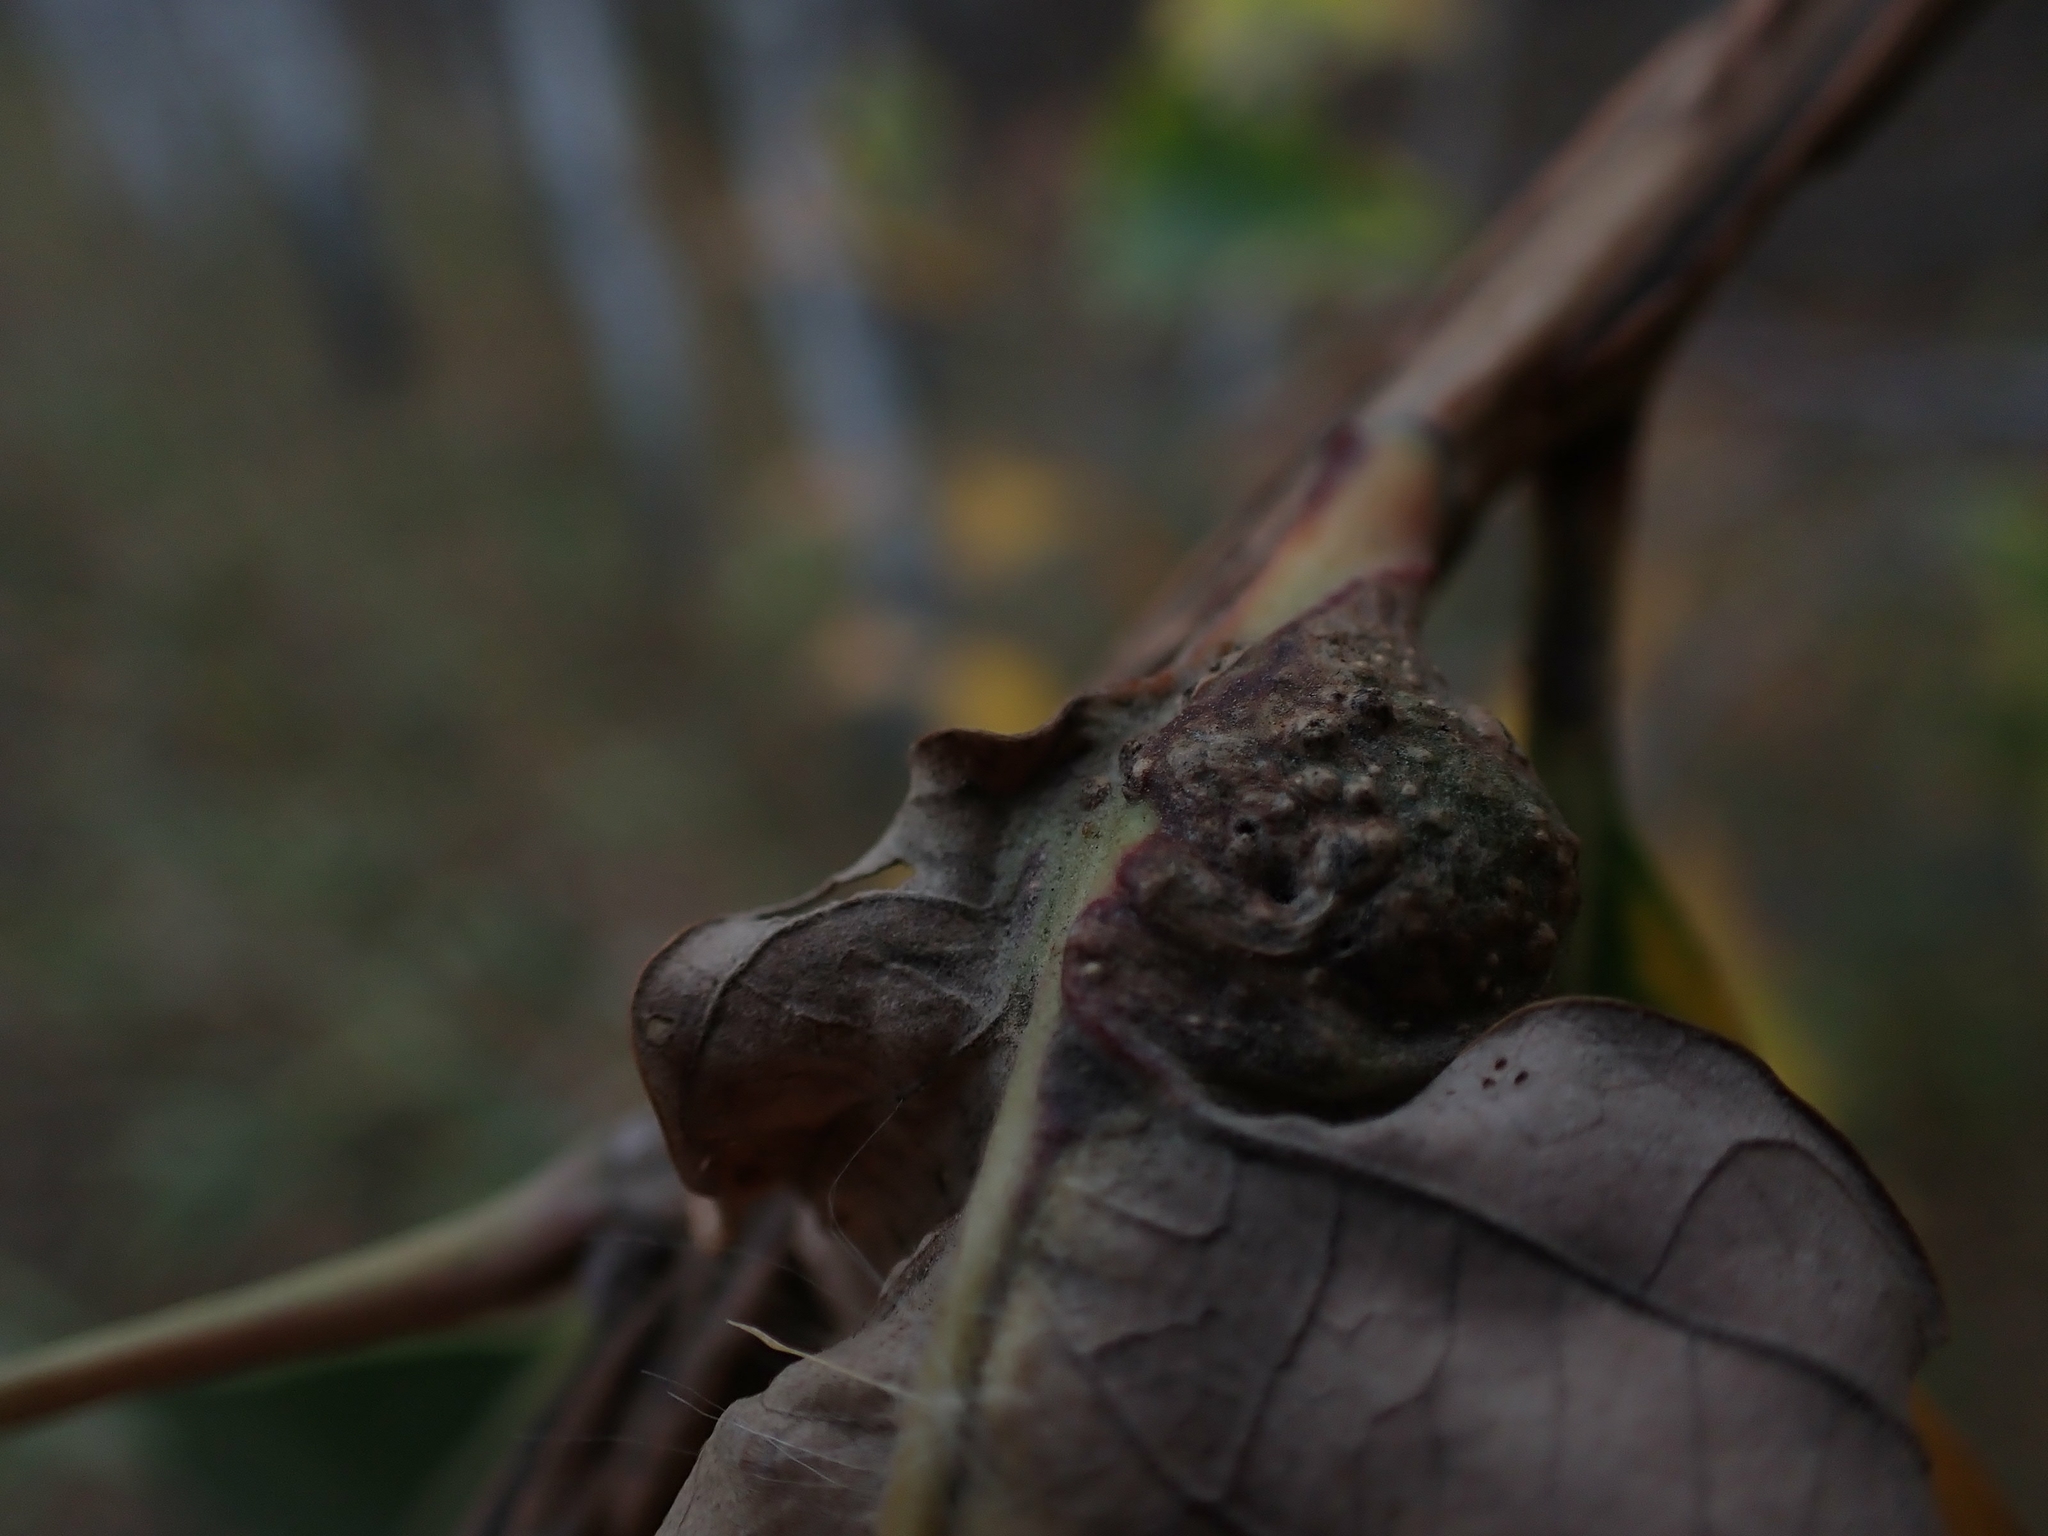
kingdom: Animalia
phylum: Arthropoda
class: Insecta
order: Hymenoptera
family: Cynipidae
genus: Andricus
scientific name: Andricus
